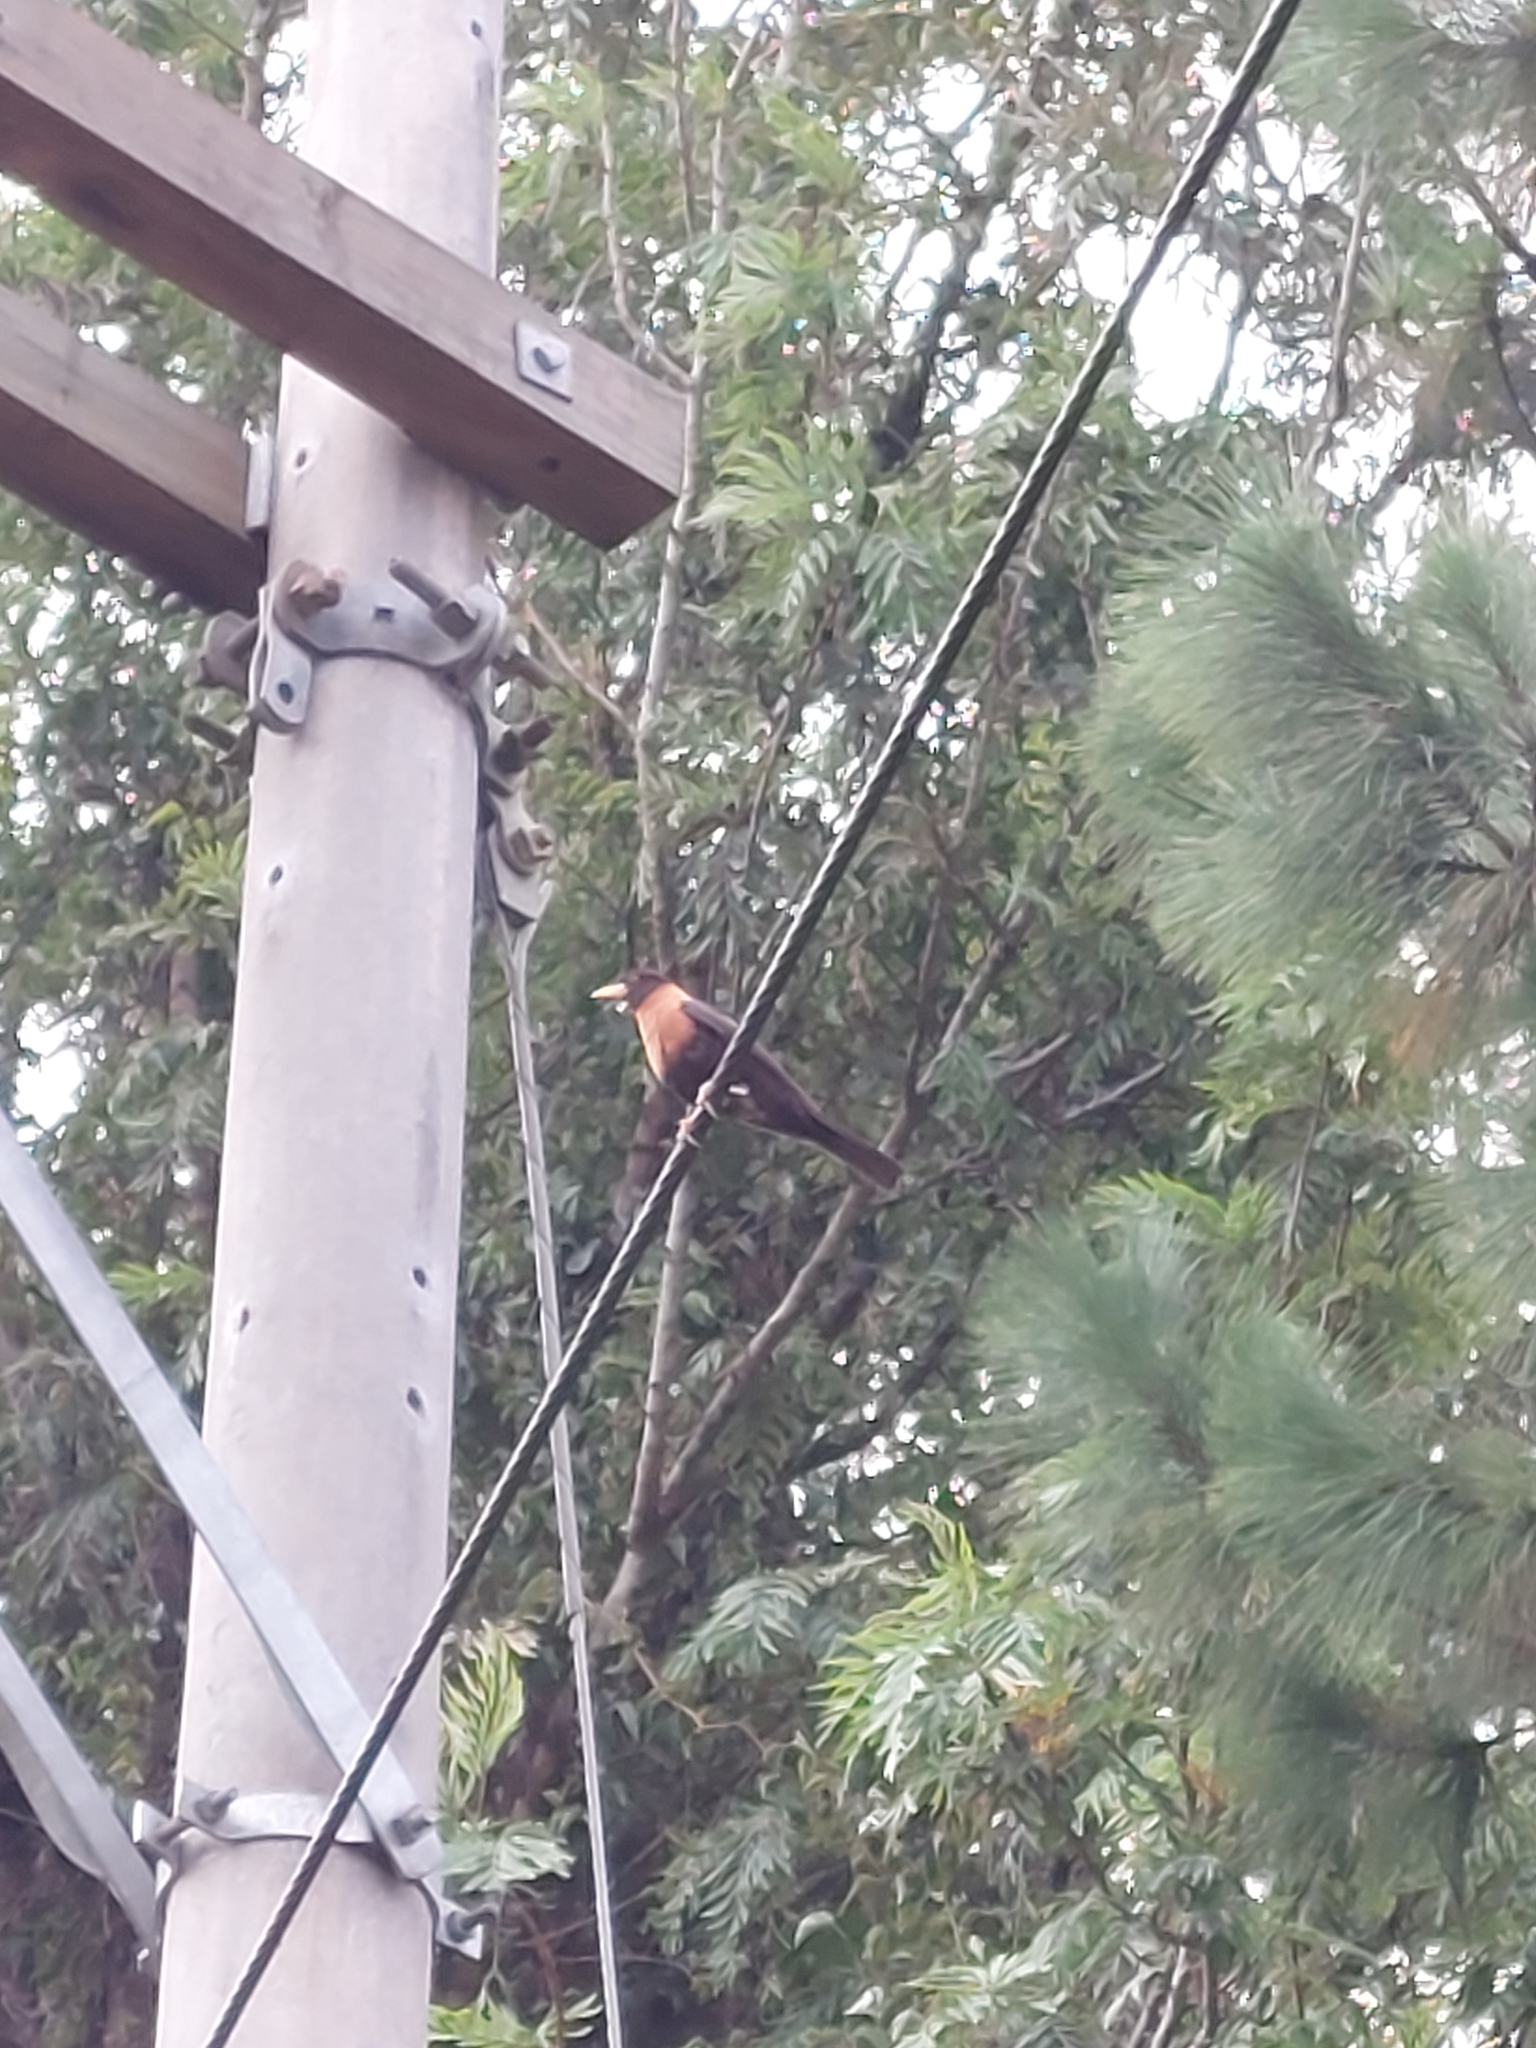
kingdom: Animalia
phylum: Chordata
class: Aves
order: Passeriformes
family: Turdidae
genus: Turdus
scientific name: Turdus rufitorques
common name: Rufous-collared thrush
